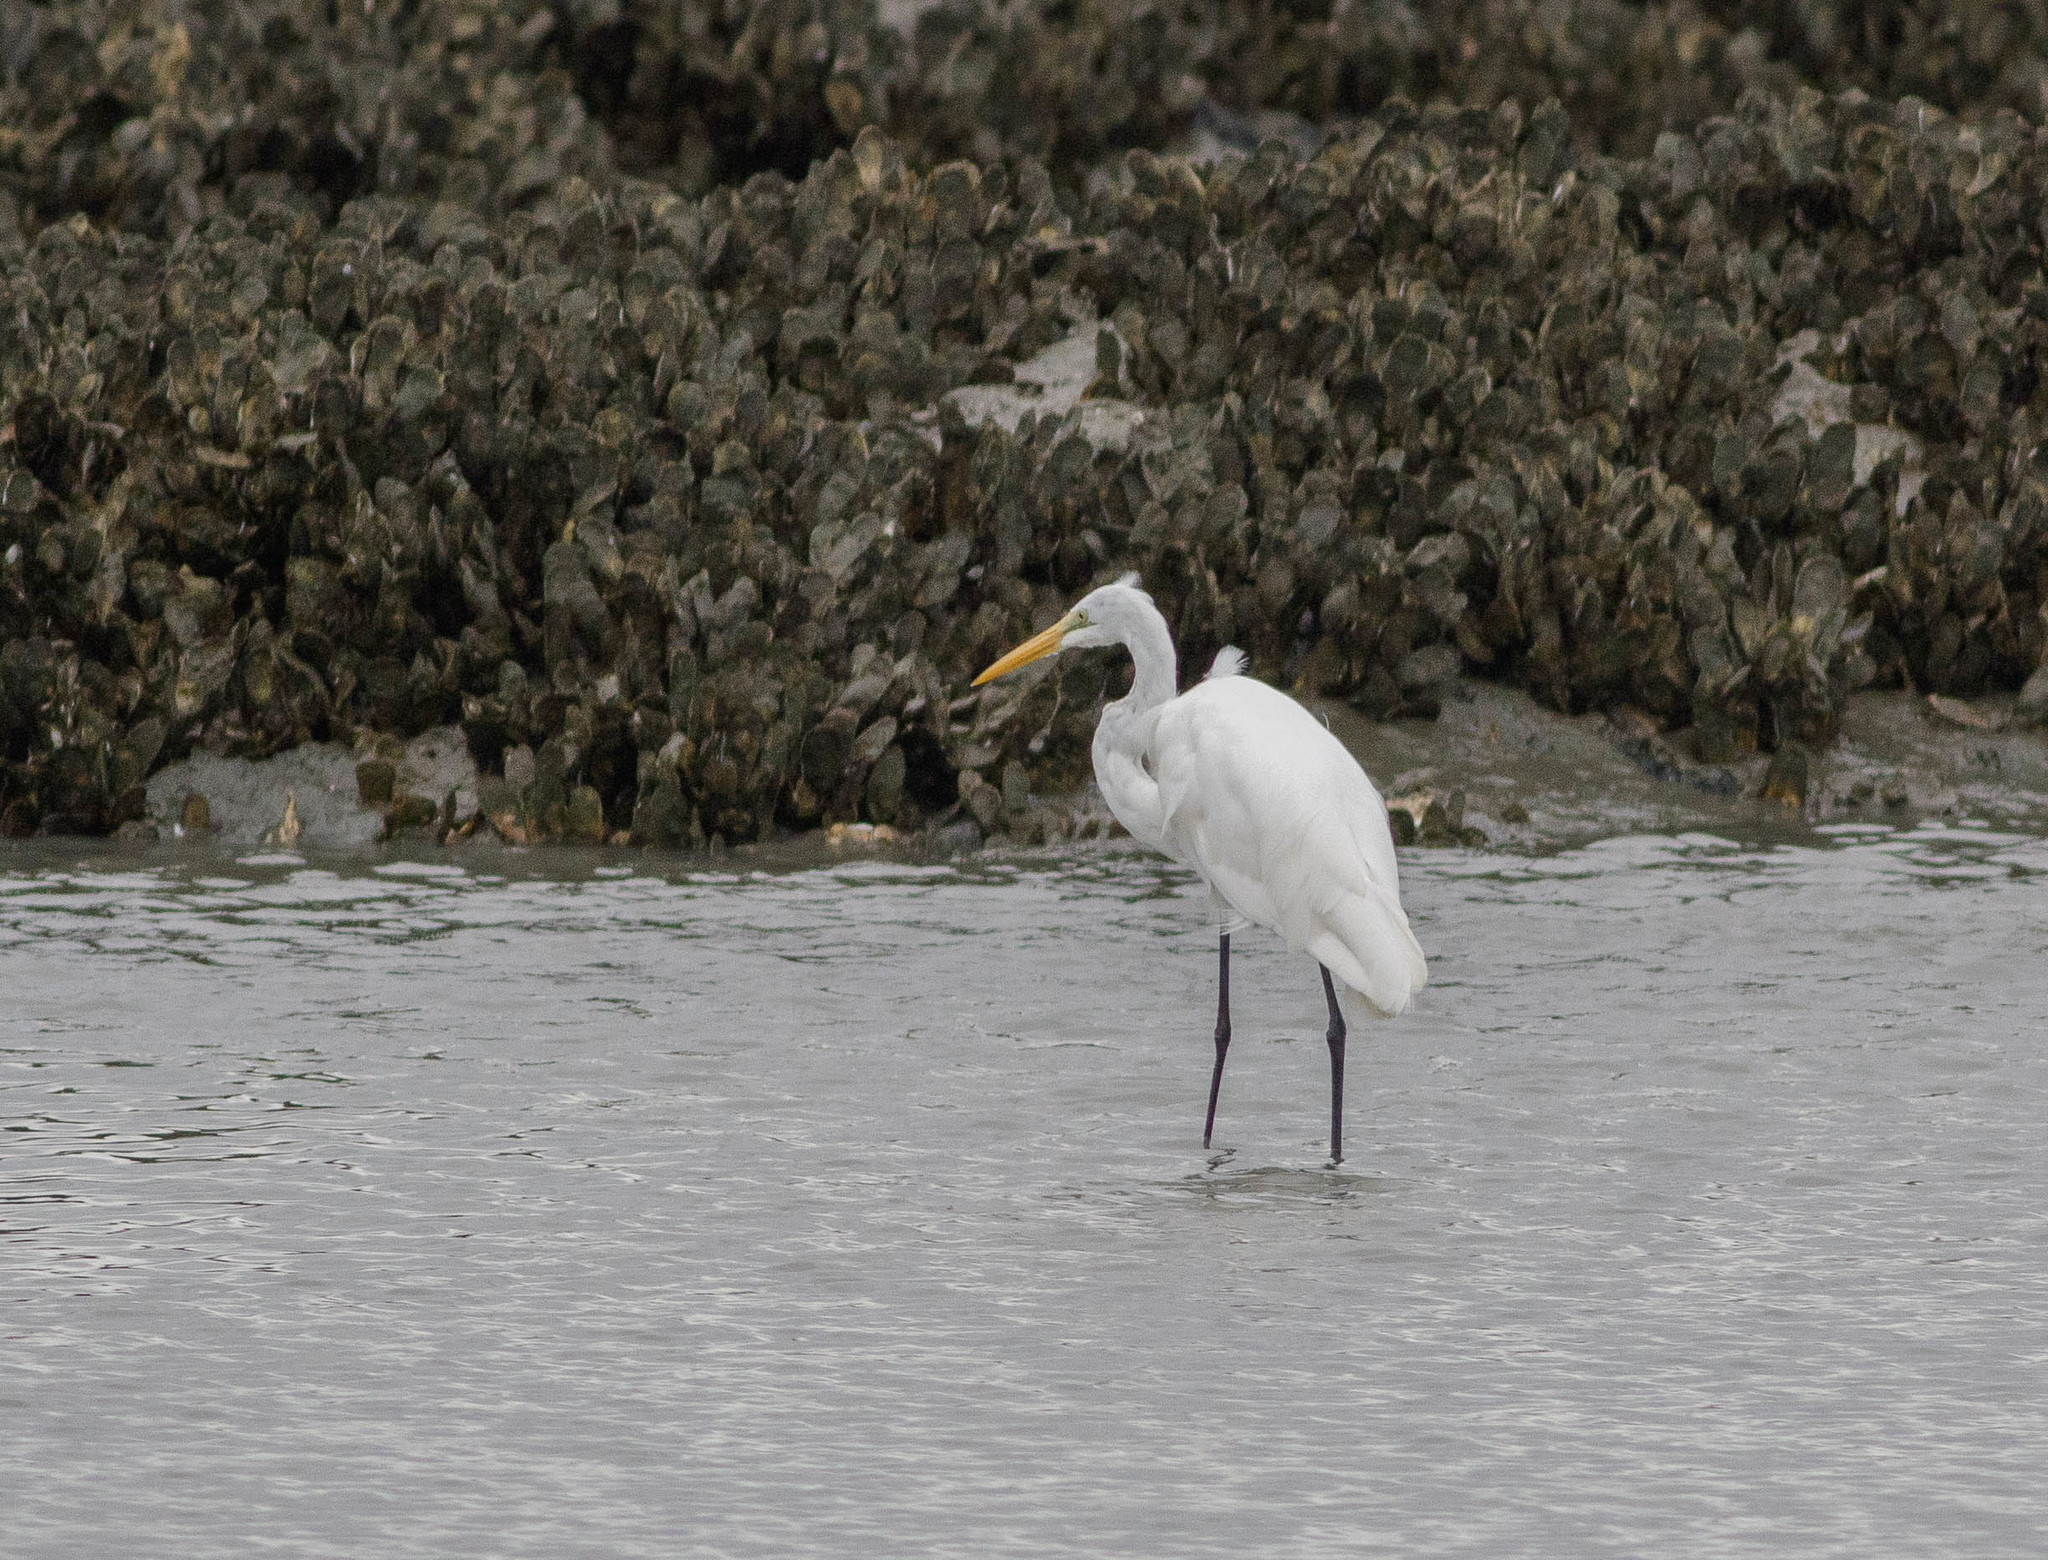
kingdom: Animalia
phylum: Chordata
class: Aves
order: Pelecaniformes
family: Ardeidae
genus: Ardea
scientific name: Ardea alba
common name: Great egret
